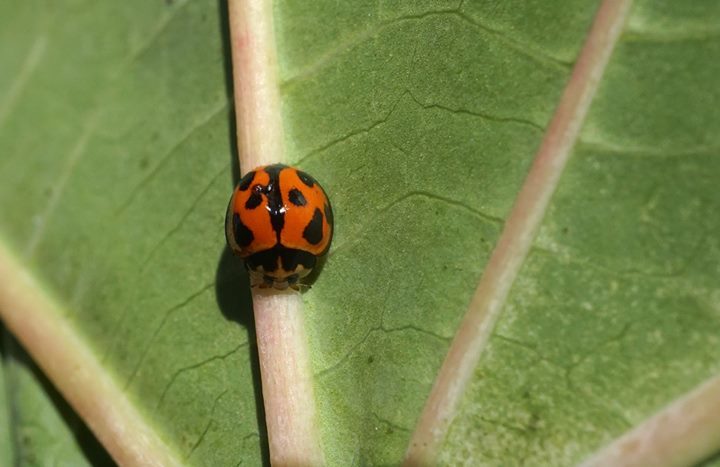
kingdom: Animalia
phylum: Arthropoda
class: Insecta
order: Coleoptera
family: Coccinellidae
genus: Coelophora
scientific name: Coelophora inaequalis
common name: Common australian lady beetle
